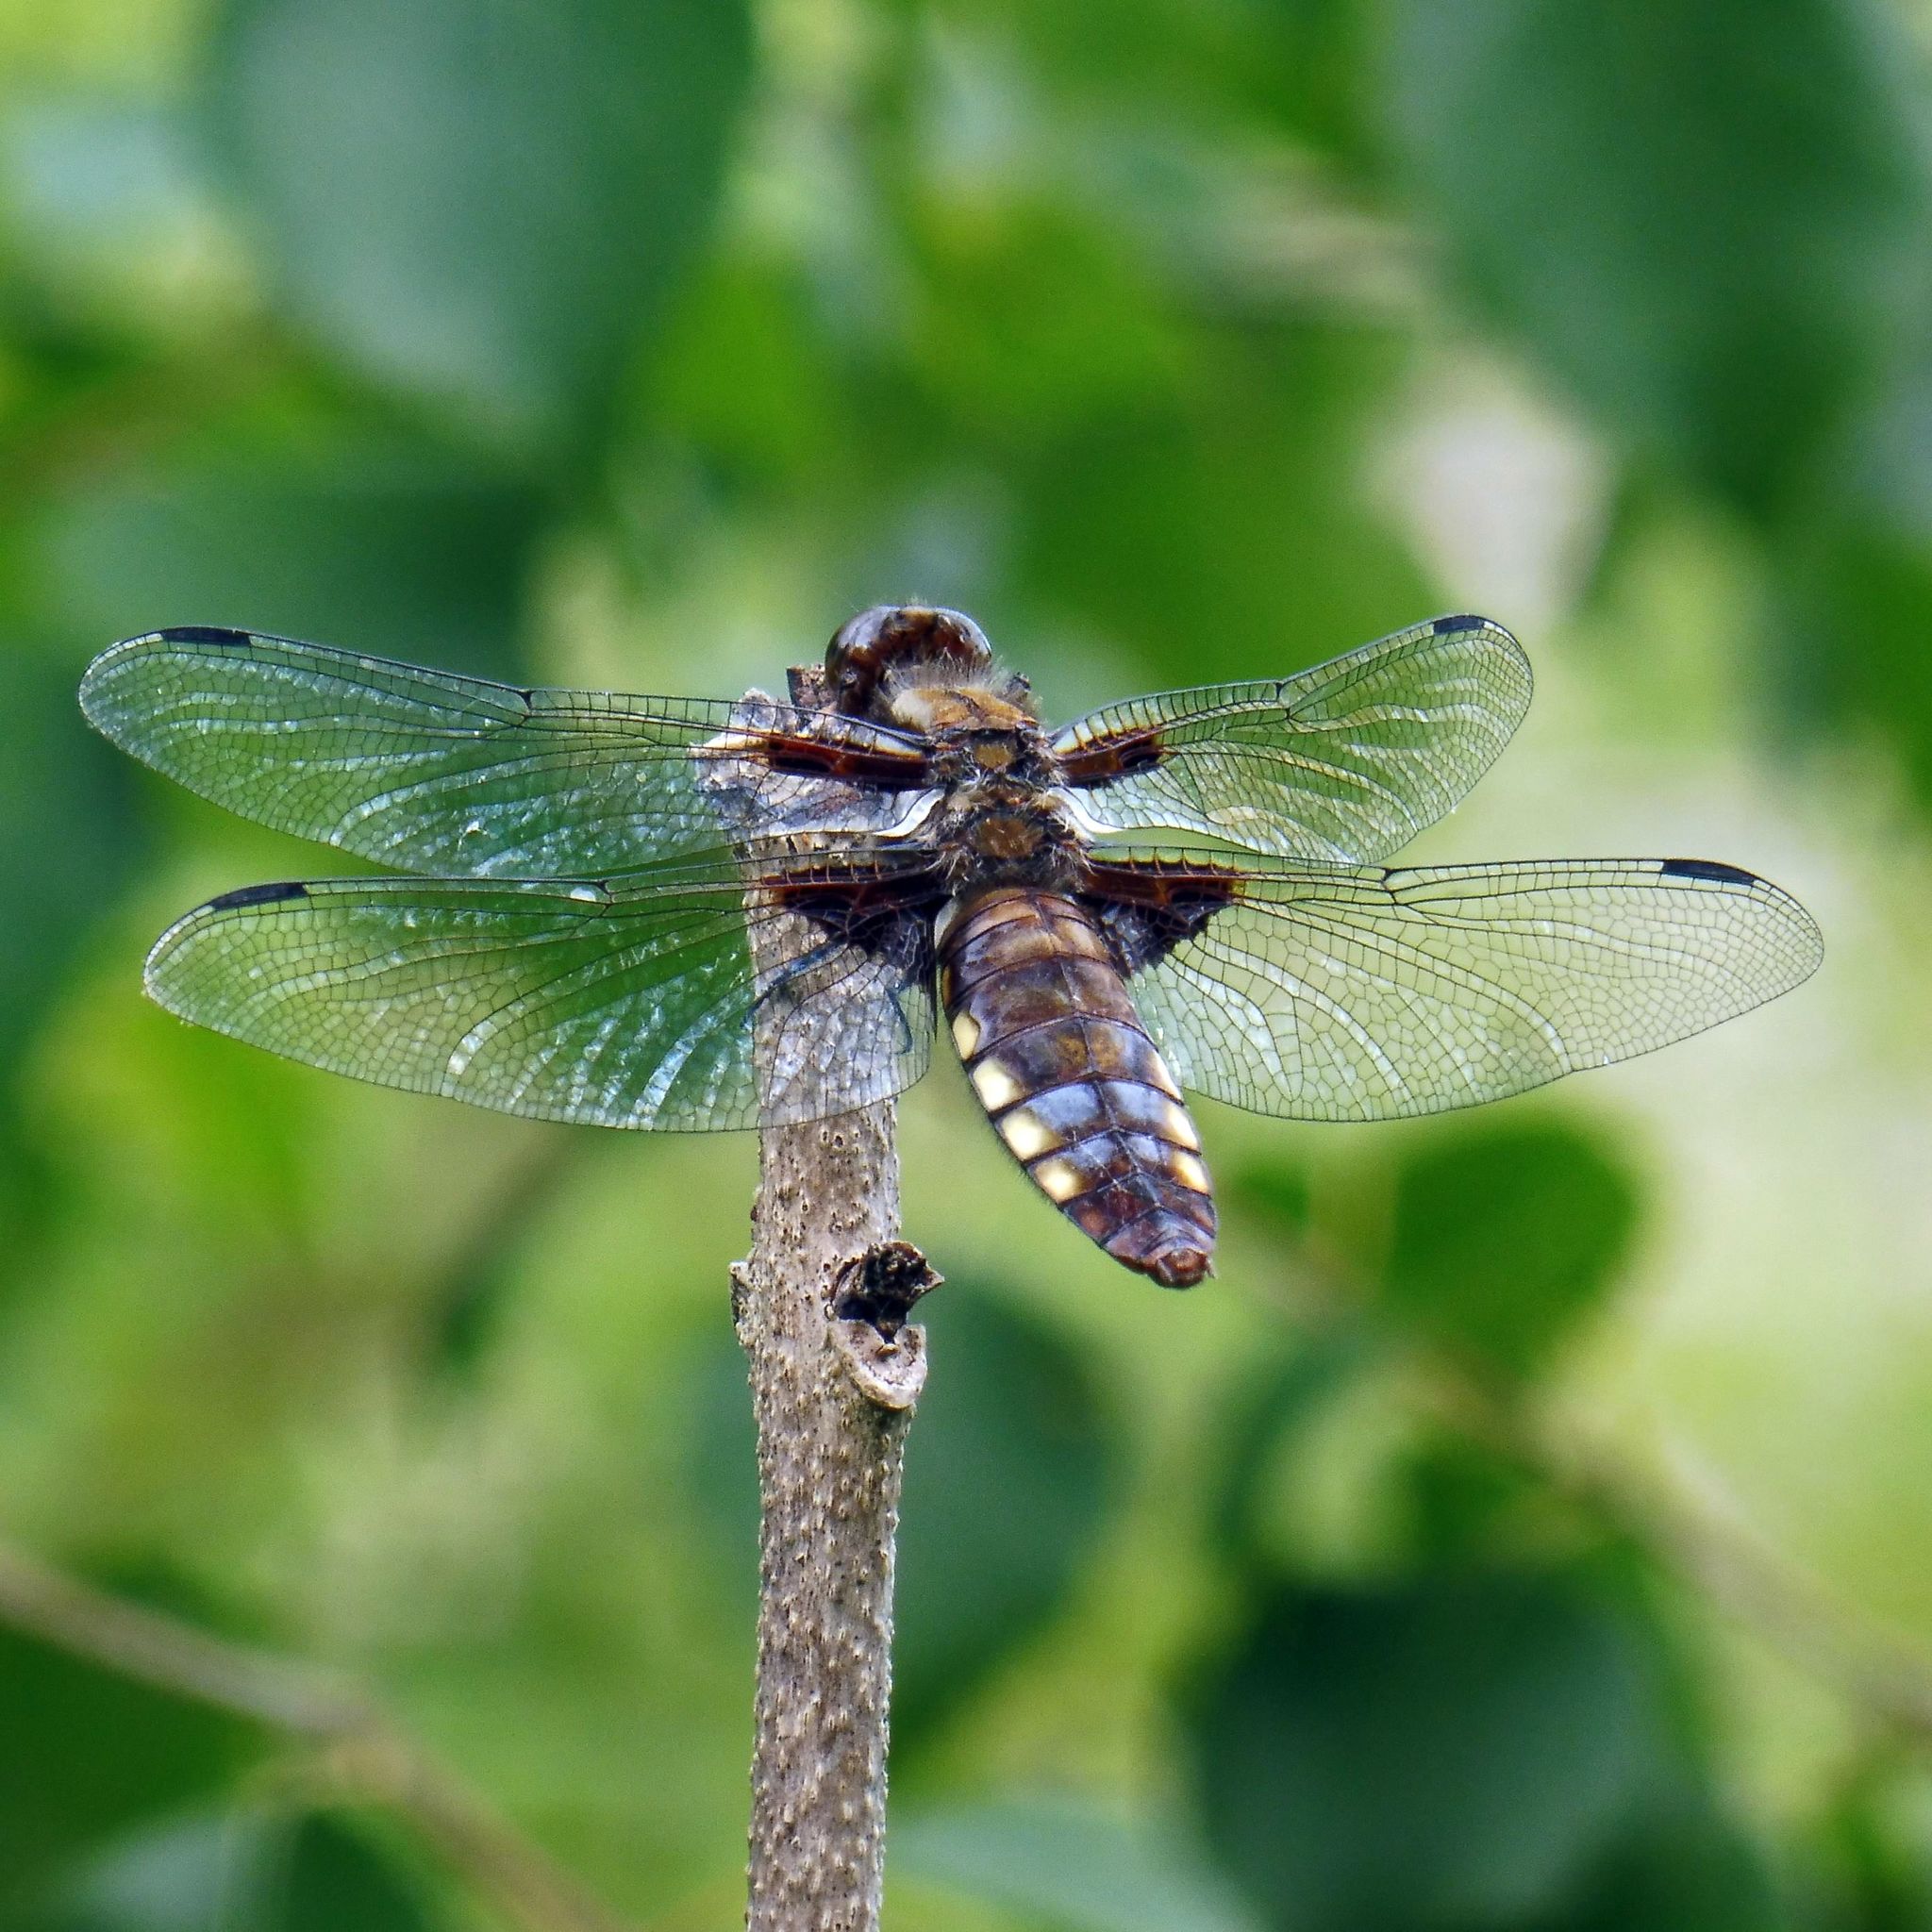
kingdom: Animalia
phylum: Arthropoda
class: Insecta
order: Odonata
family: Libellulidae
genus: Libellula
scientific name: Libellula depressa
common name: Broad-bodied chaser
